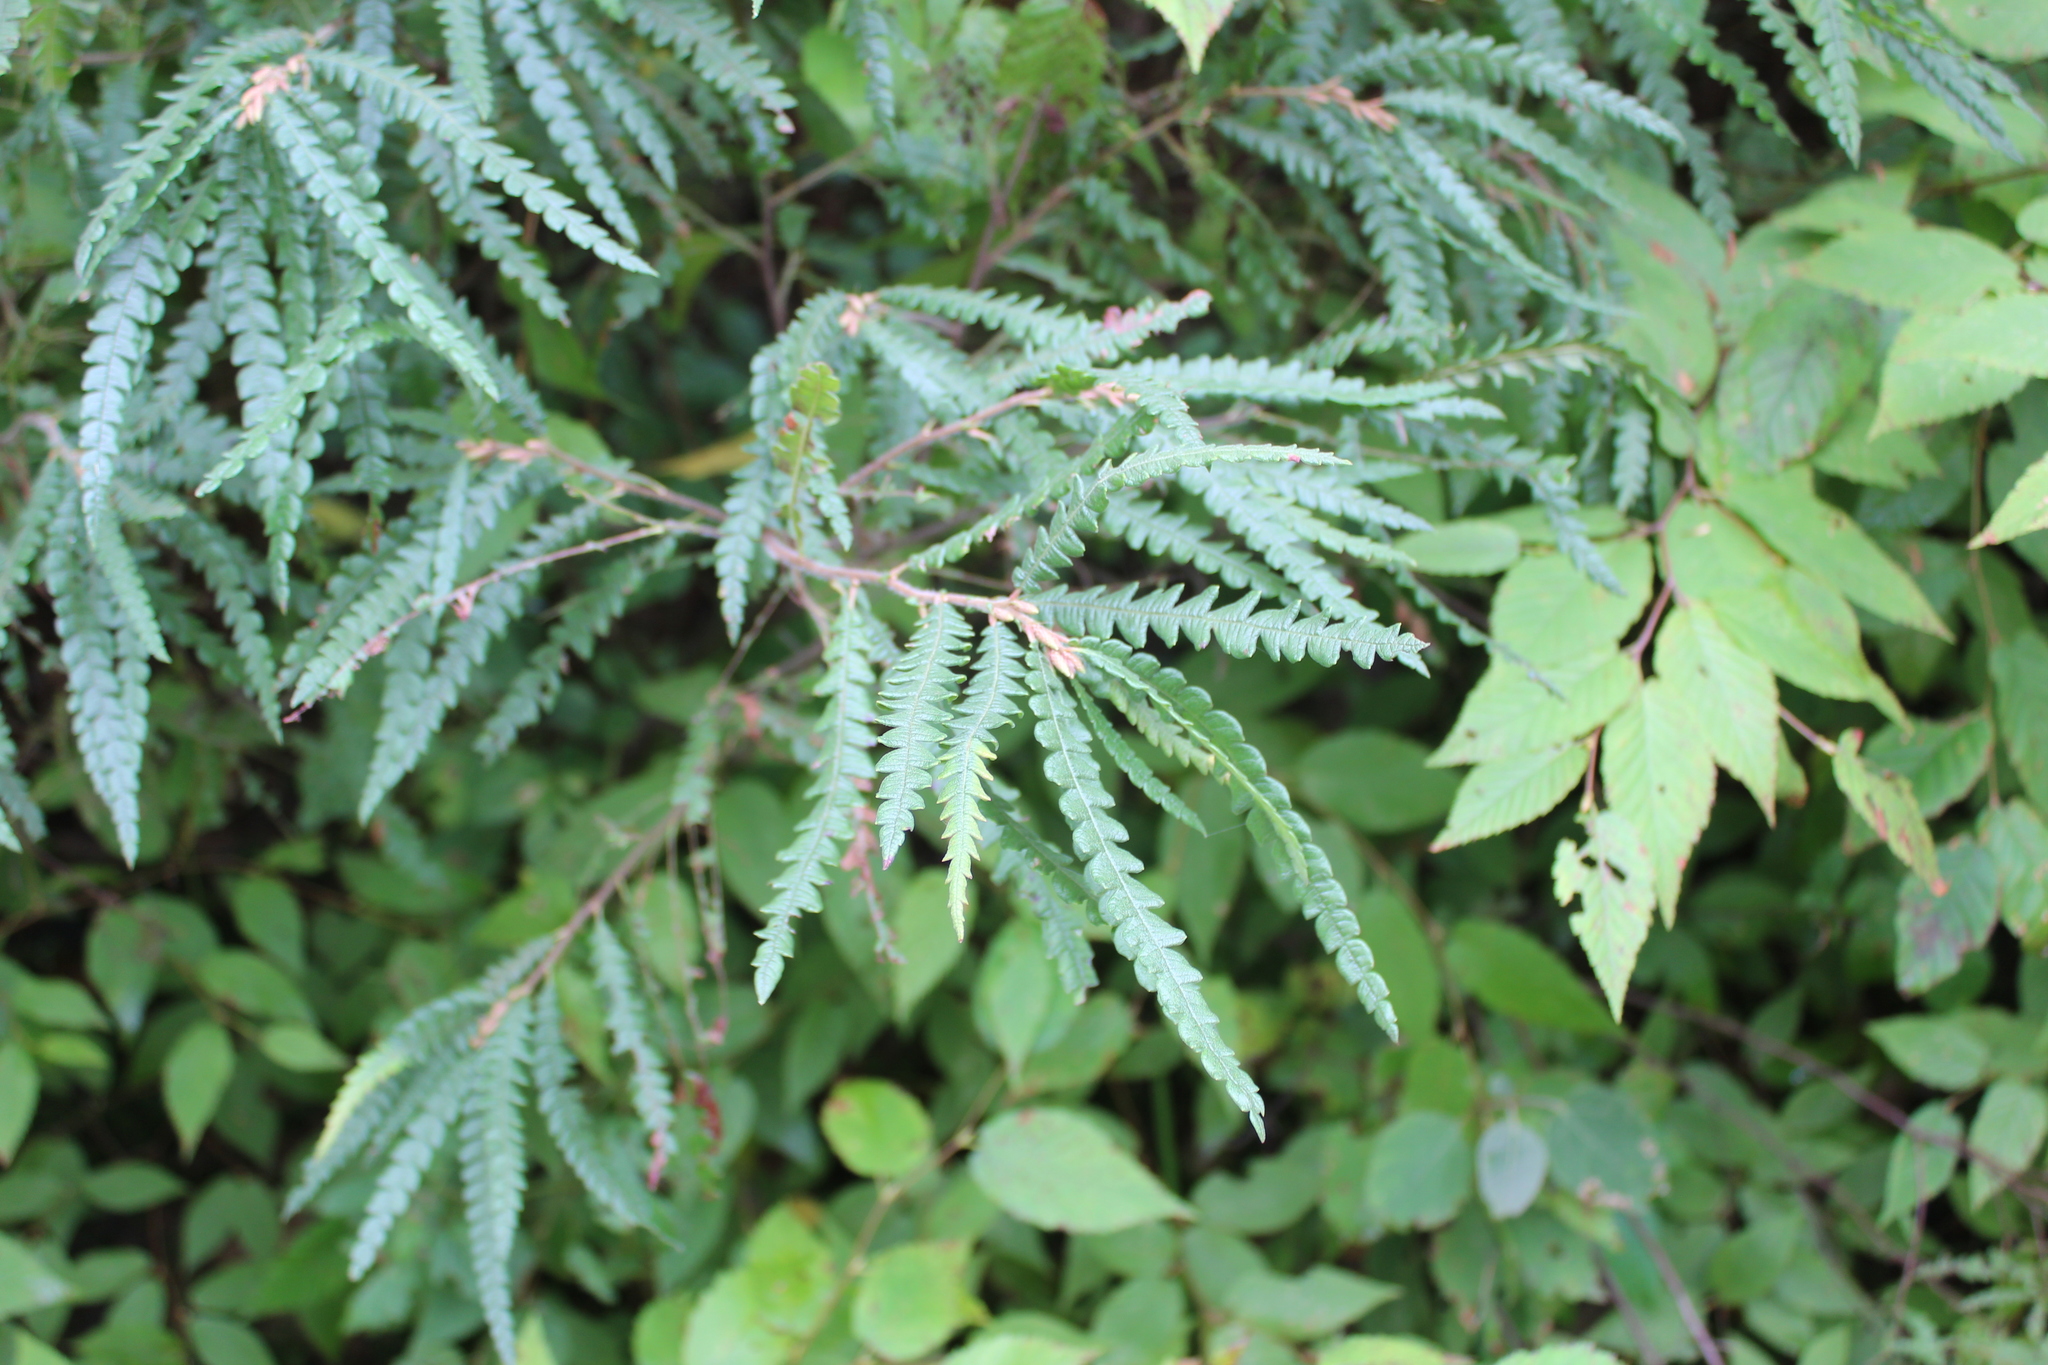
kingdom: Plantae
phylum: Tracheophyta
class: Magnoliopsida
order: Fagales
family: Myricaceae
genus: Comptonia
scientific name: Comptonia peregrina
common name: Sweet-fern
